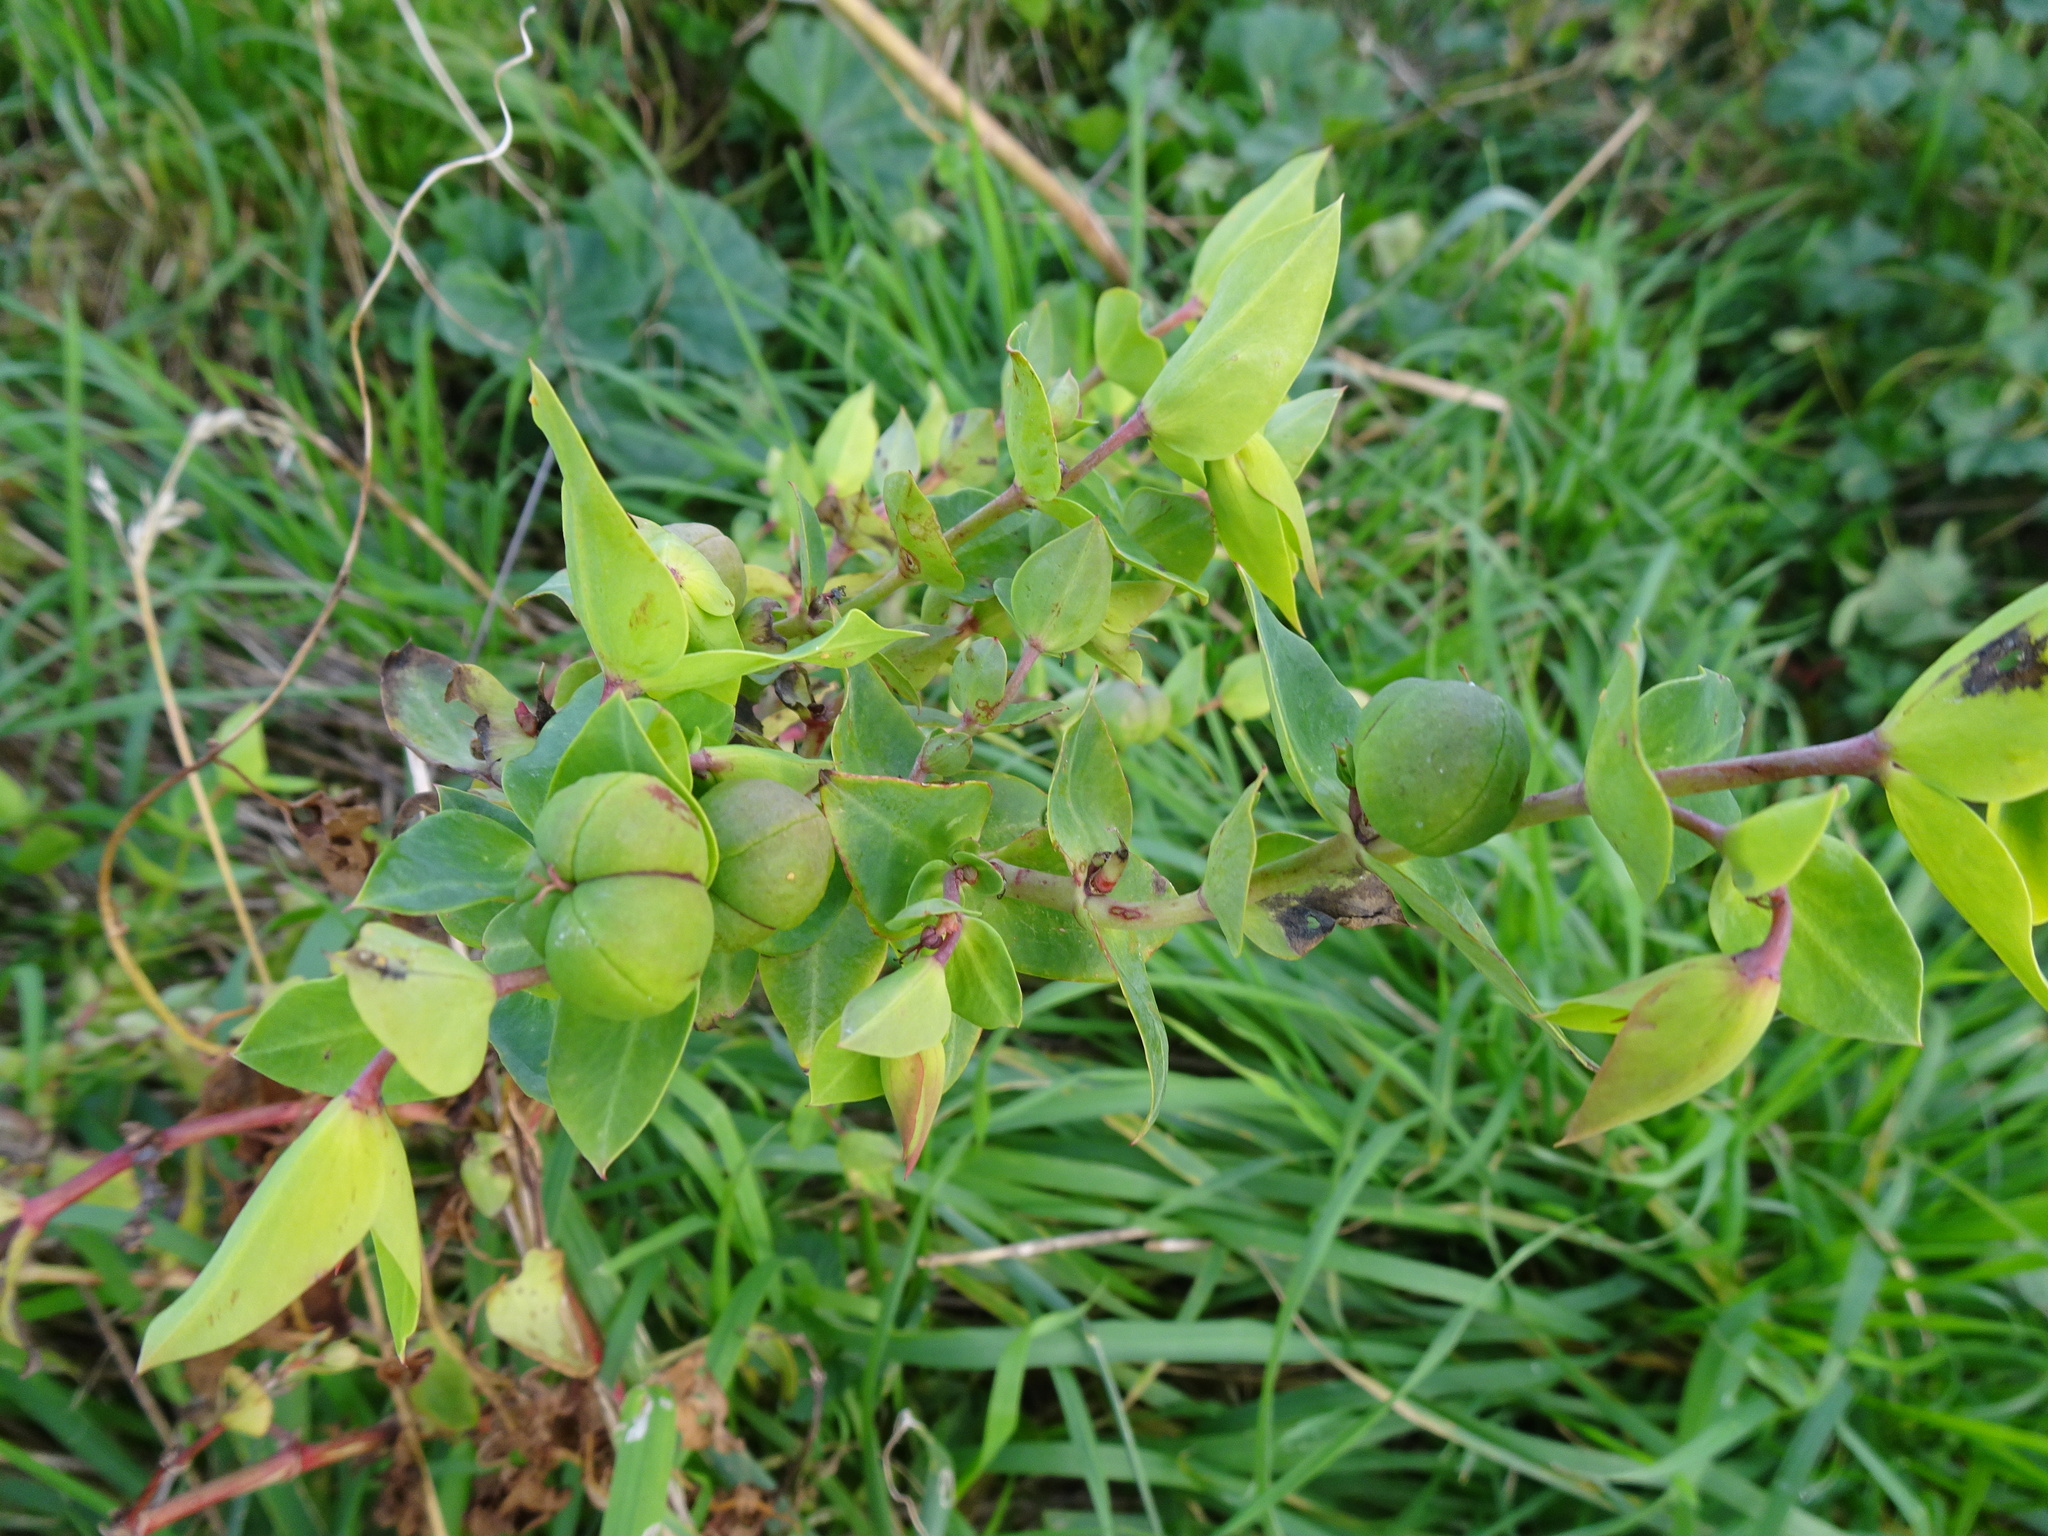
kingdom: Plantae
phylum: Tracheophyta
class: Magnoliopsida
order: Malpighiales
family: Euphorbiaceae
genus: Euphorbia
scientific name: Euphorbia lathyris
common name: Caper spurge
